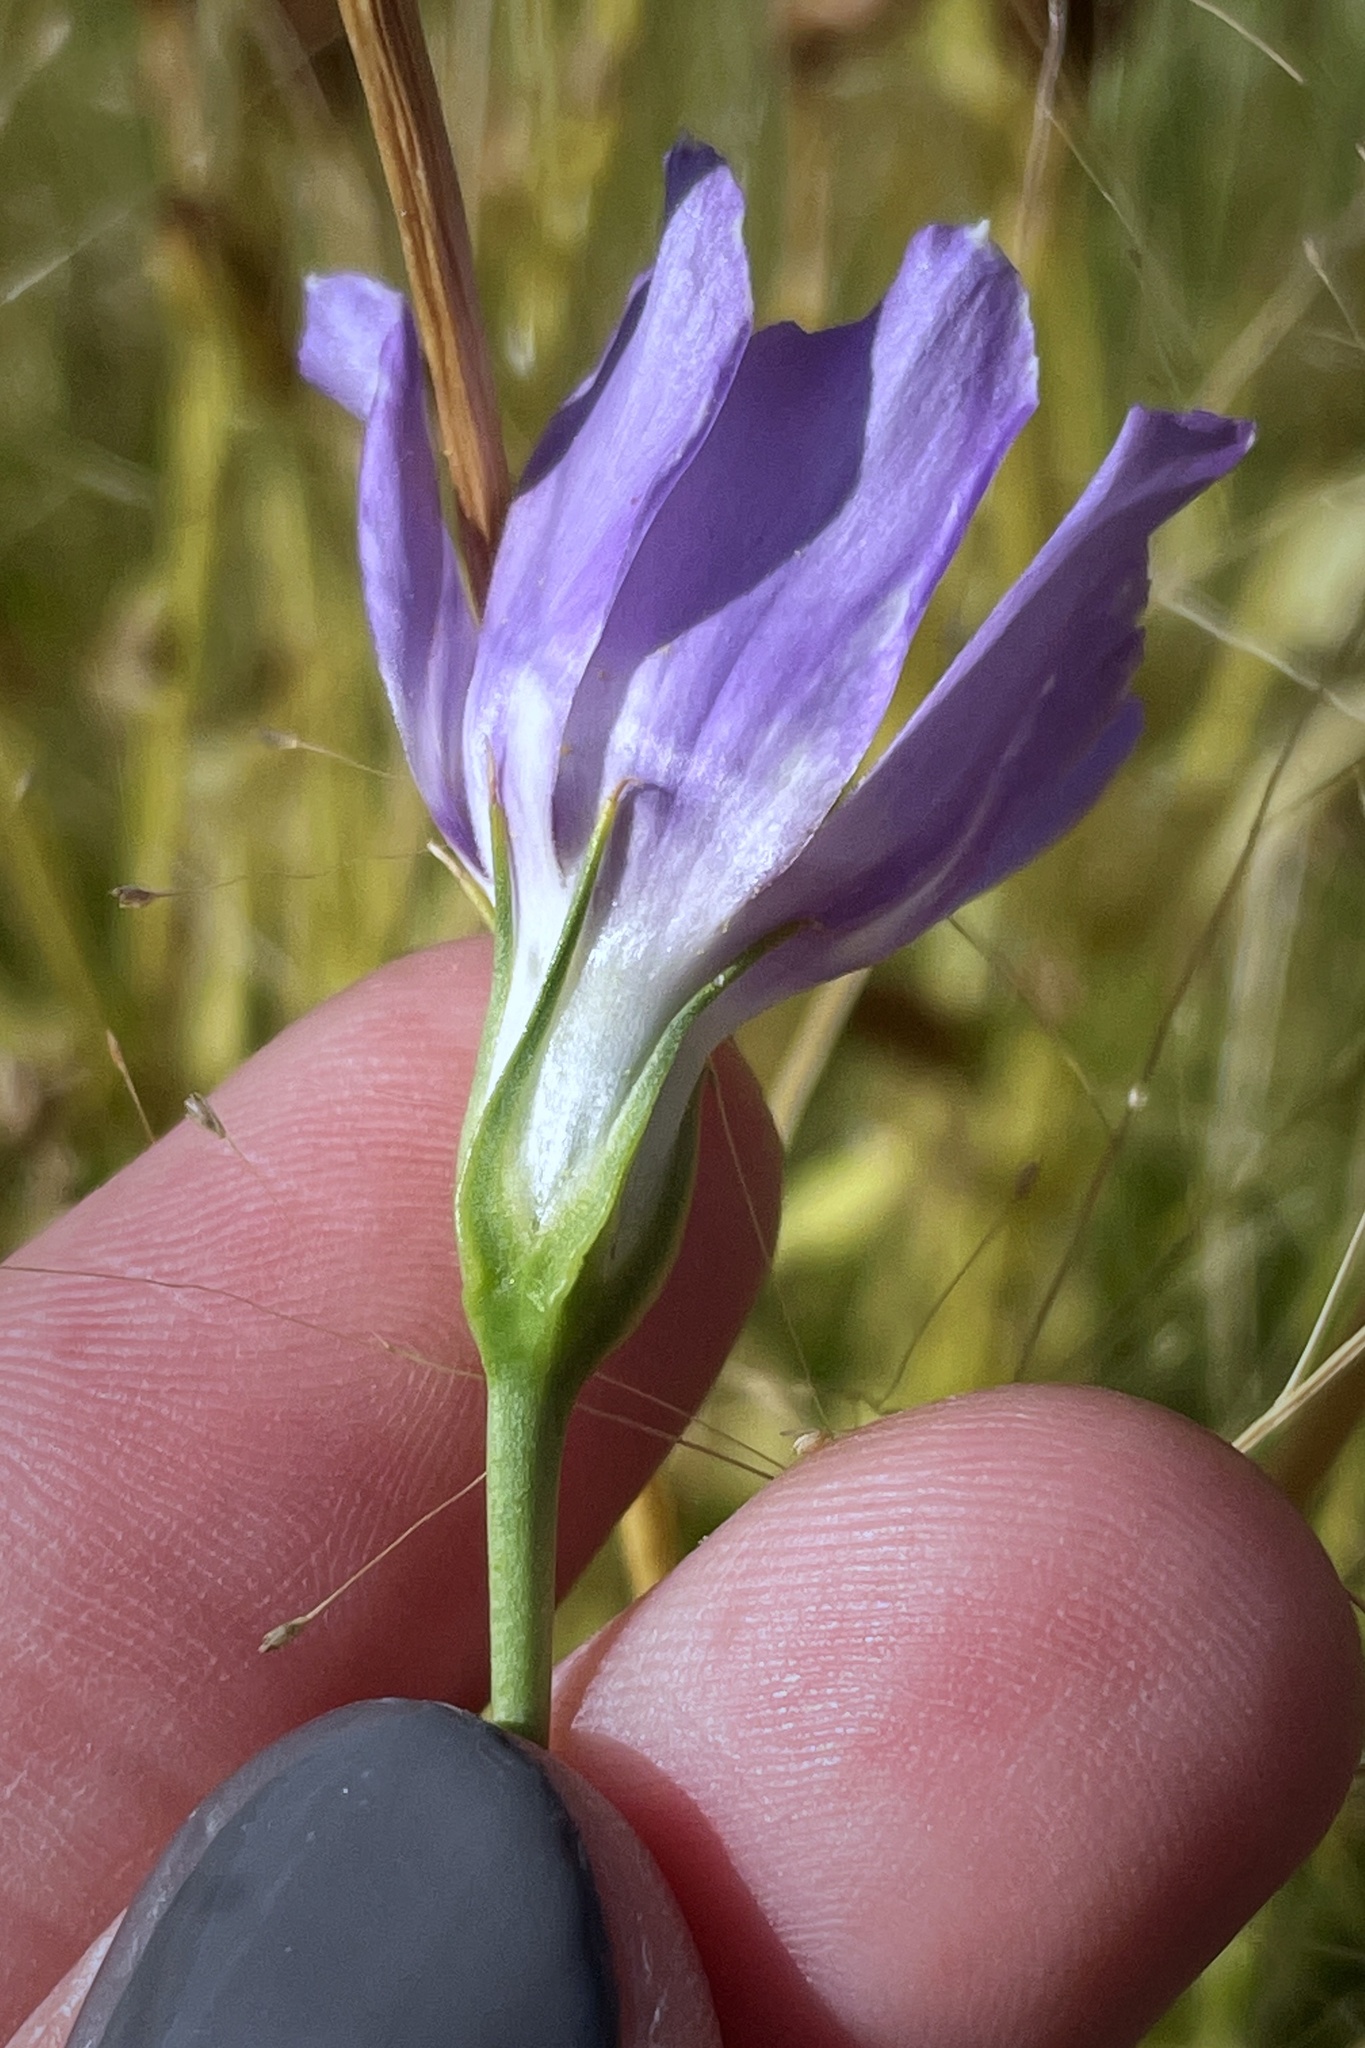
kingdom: Plantae
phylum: Tracheophyta
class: Magnoliopsida
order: Gentianales
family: Gentianaceae
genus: Eustoma
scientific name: Eustoma exaltatum
